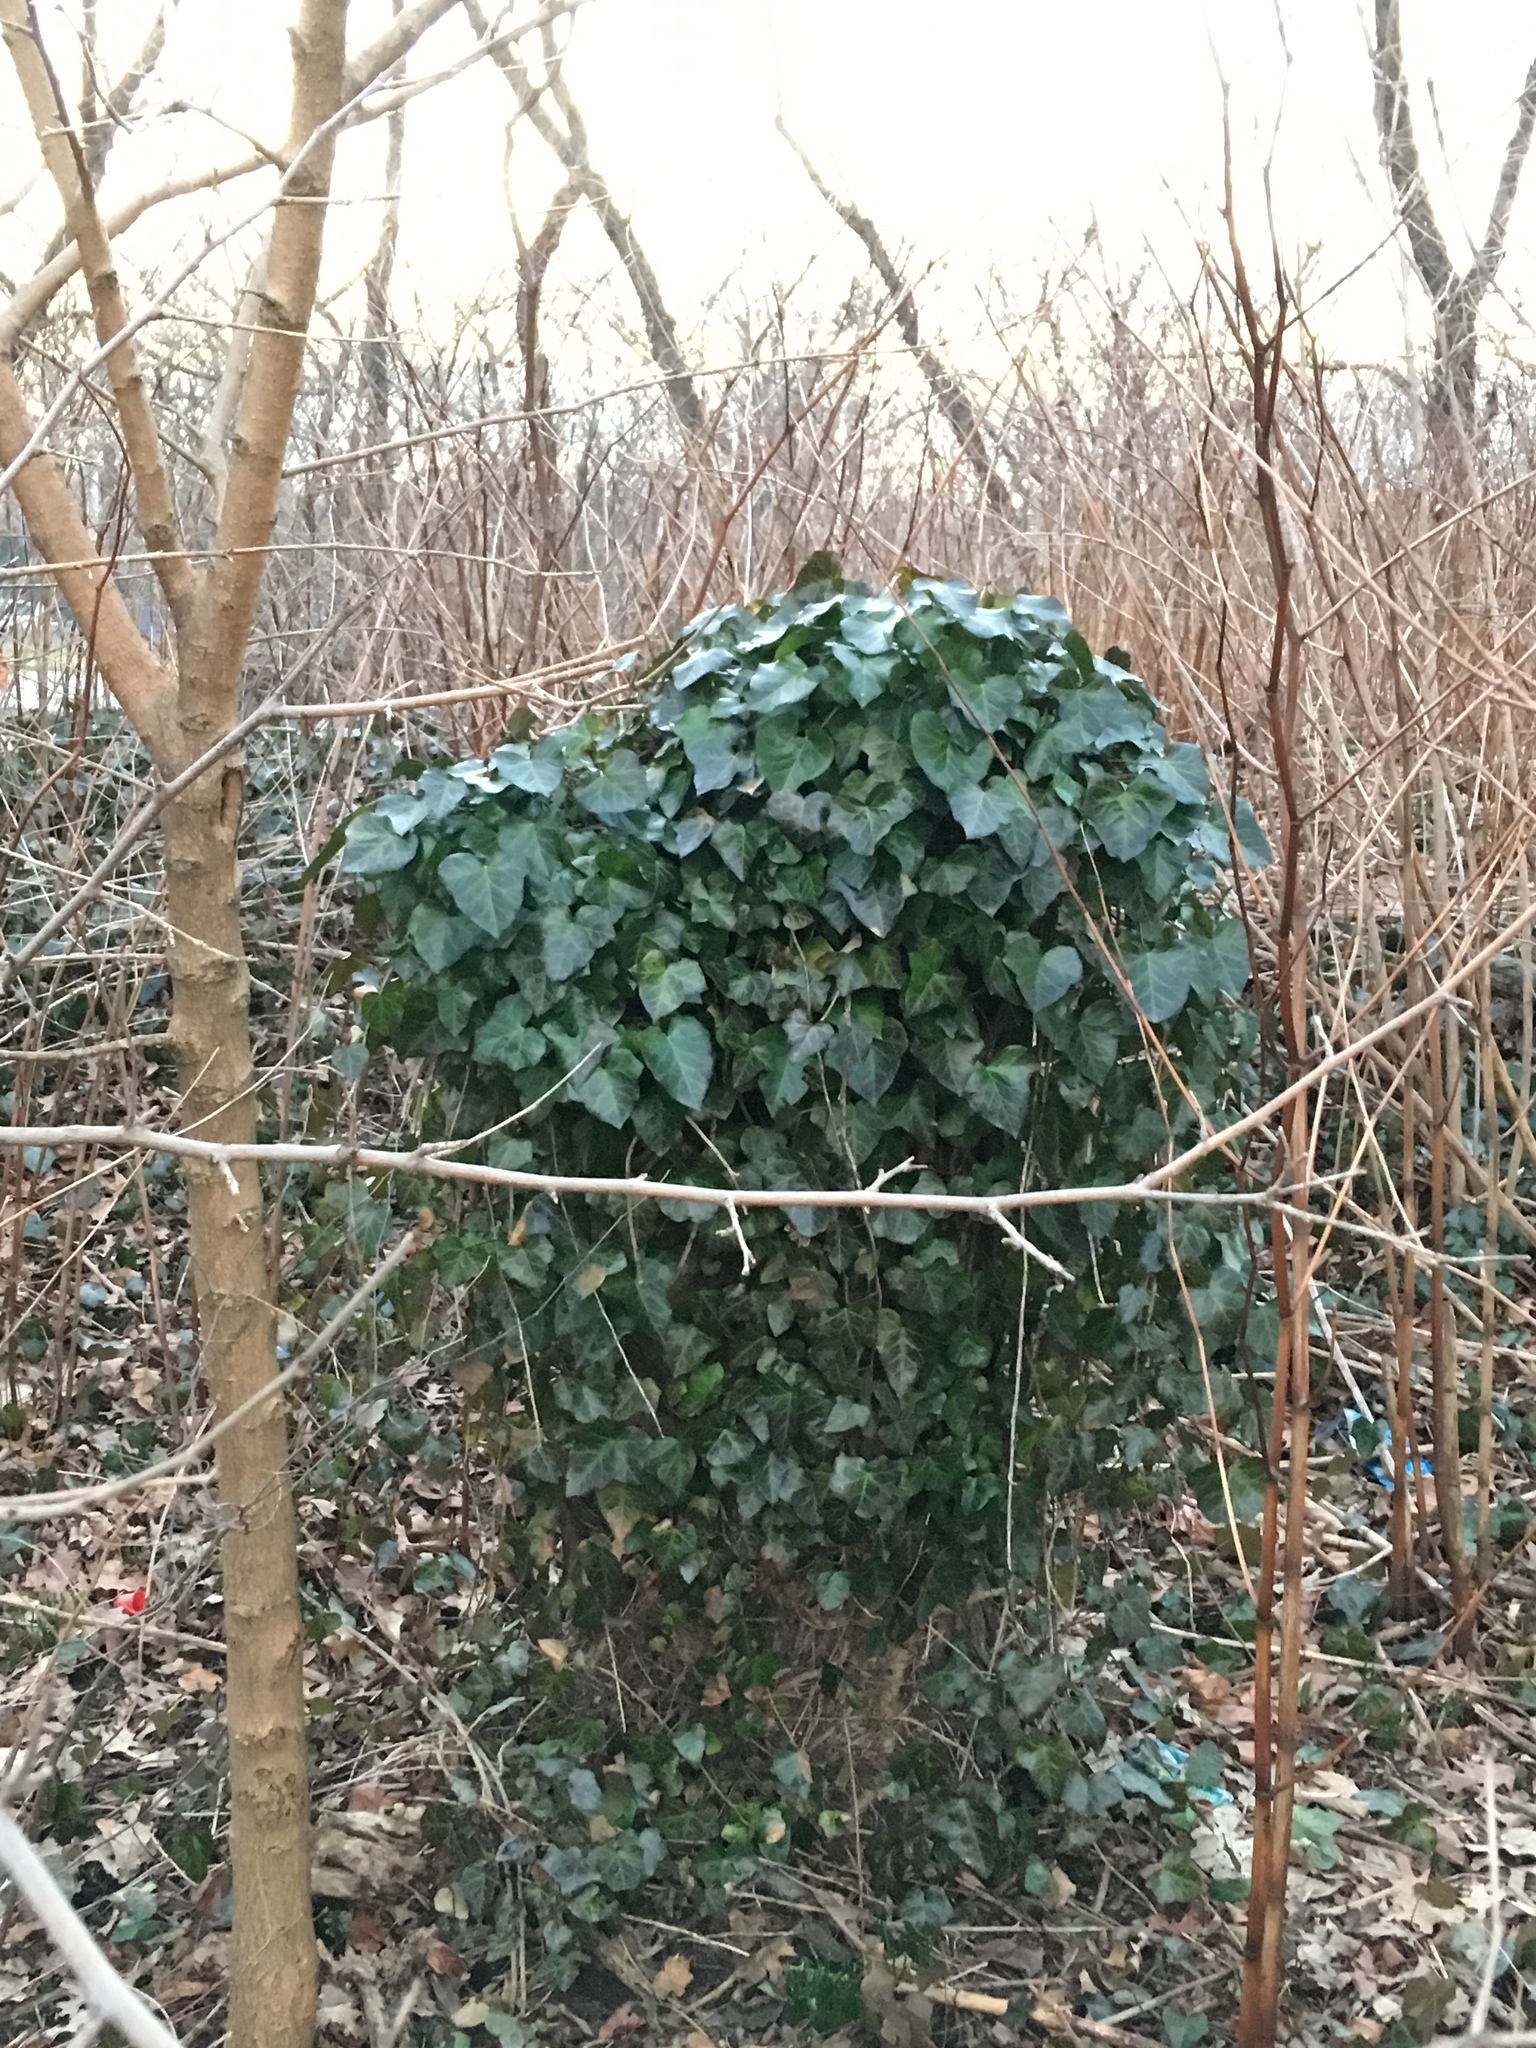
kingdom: Plantae
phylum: Tracheophyta
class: Magnoliopsida
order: Apiales
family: Araliaceae
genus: Hedera
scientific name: Hedera helix
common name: Ivy
